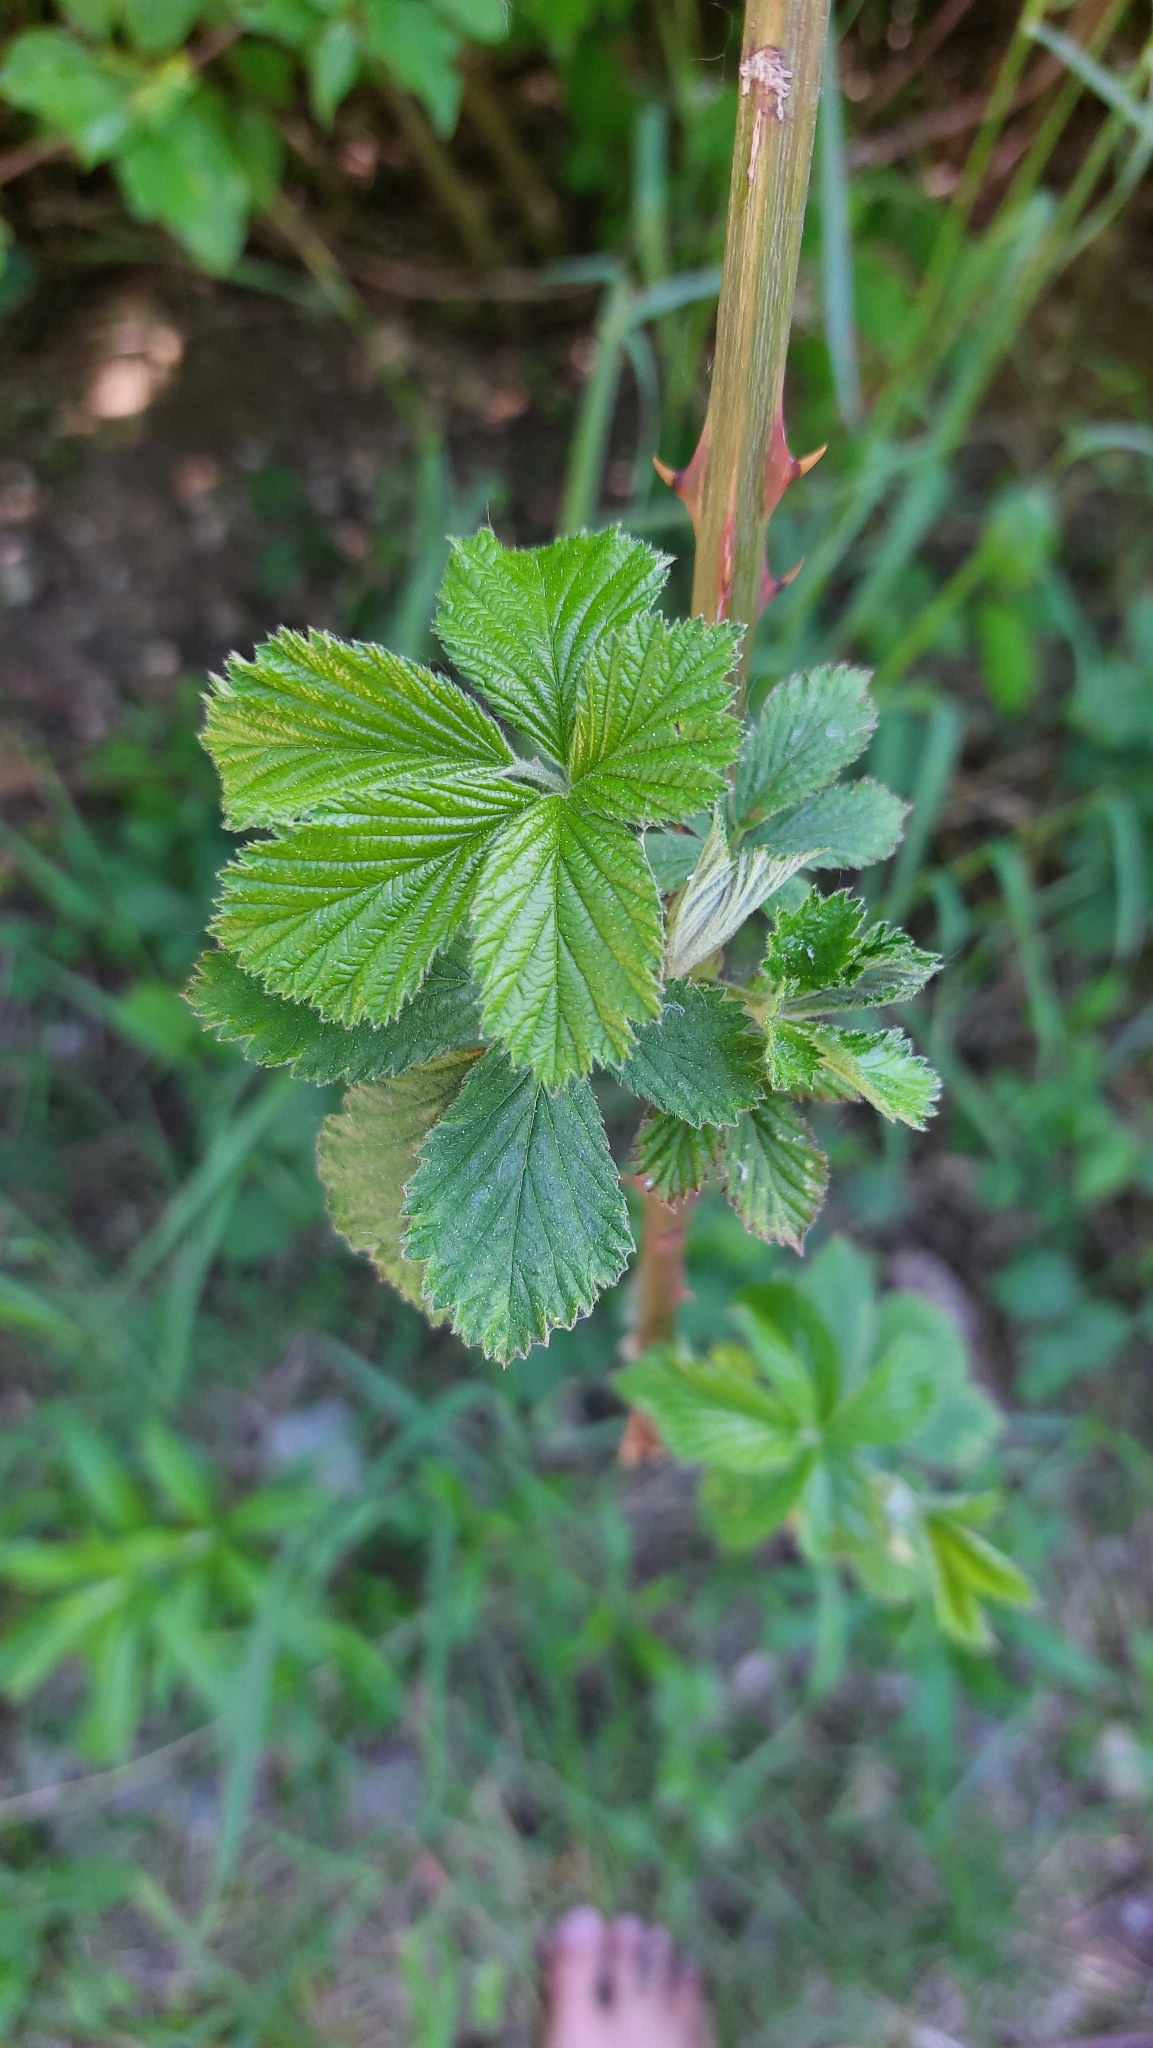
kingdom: Plantae
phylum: Tracheophyta
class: Magnoliopsida
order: Rosales
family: Rosaceae
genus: Rubus
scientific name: Rubus
